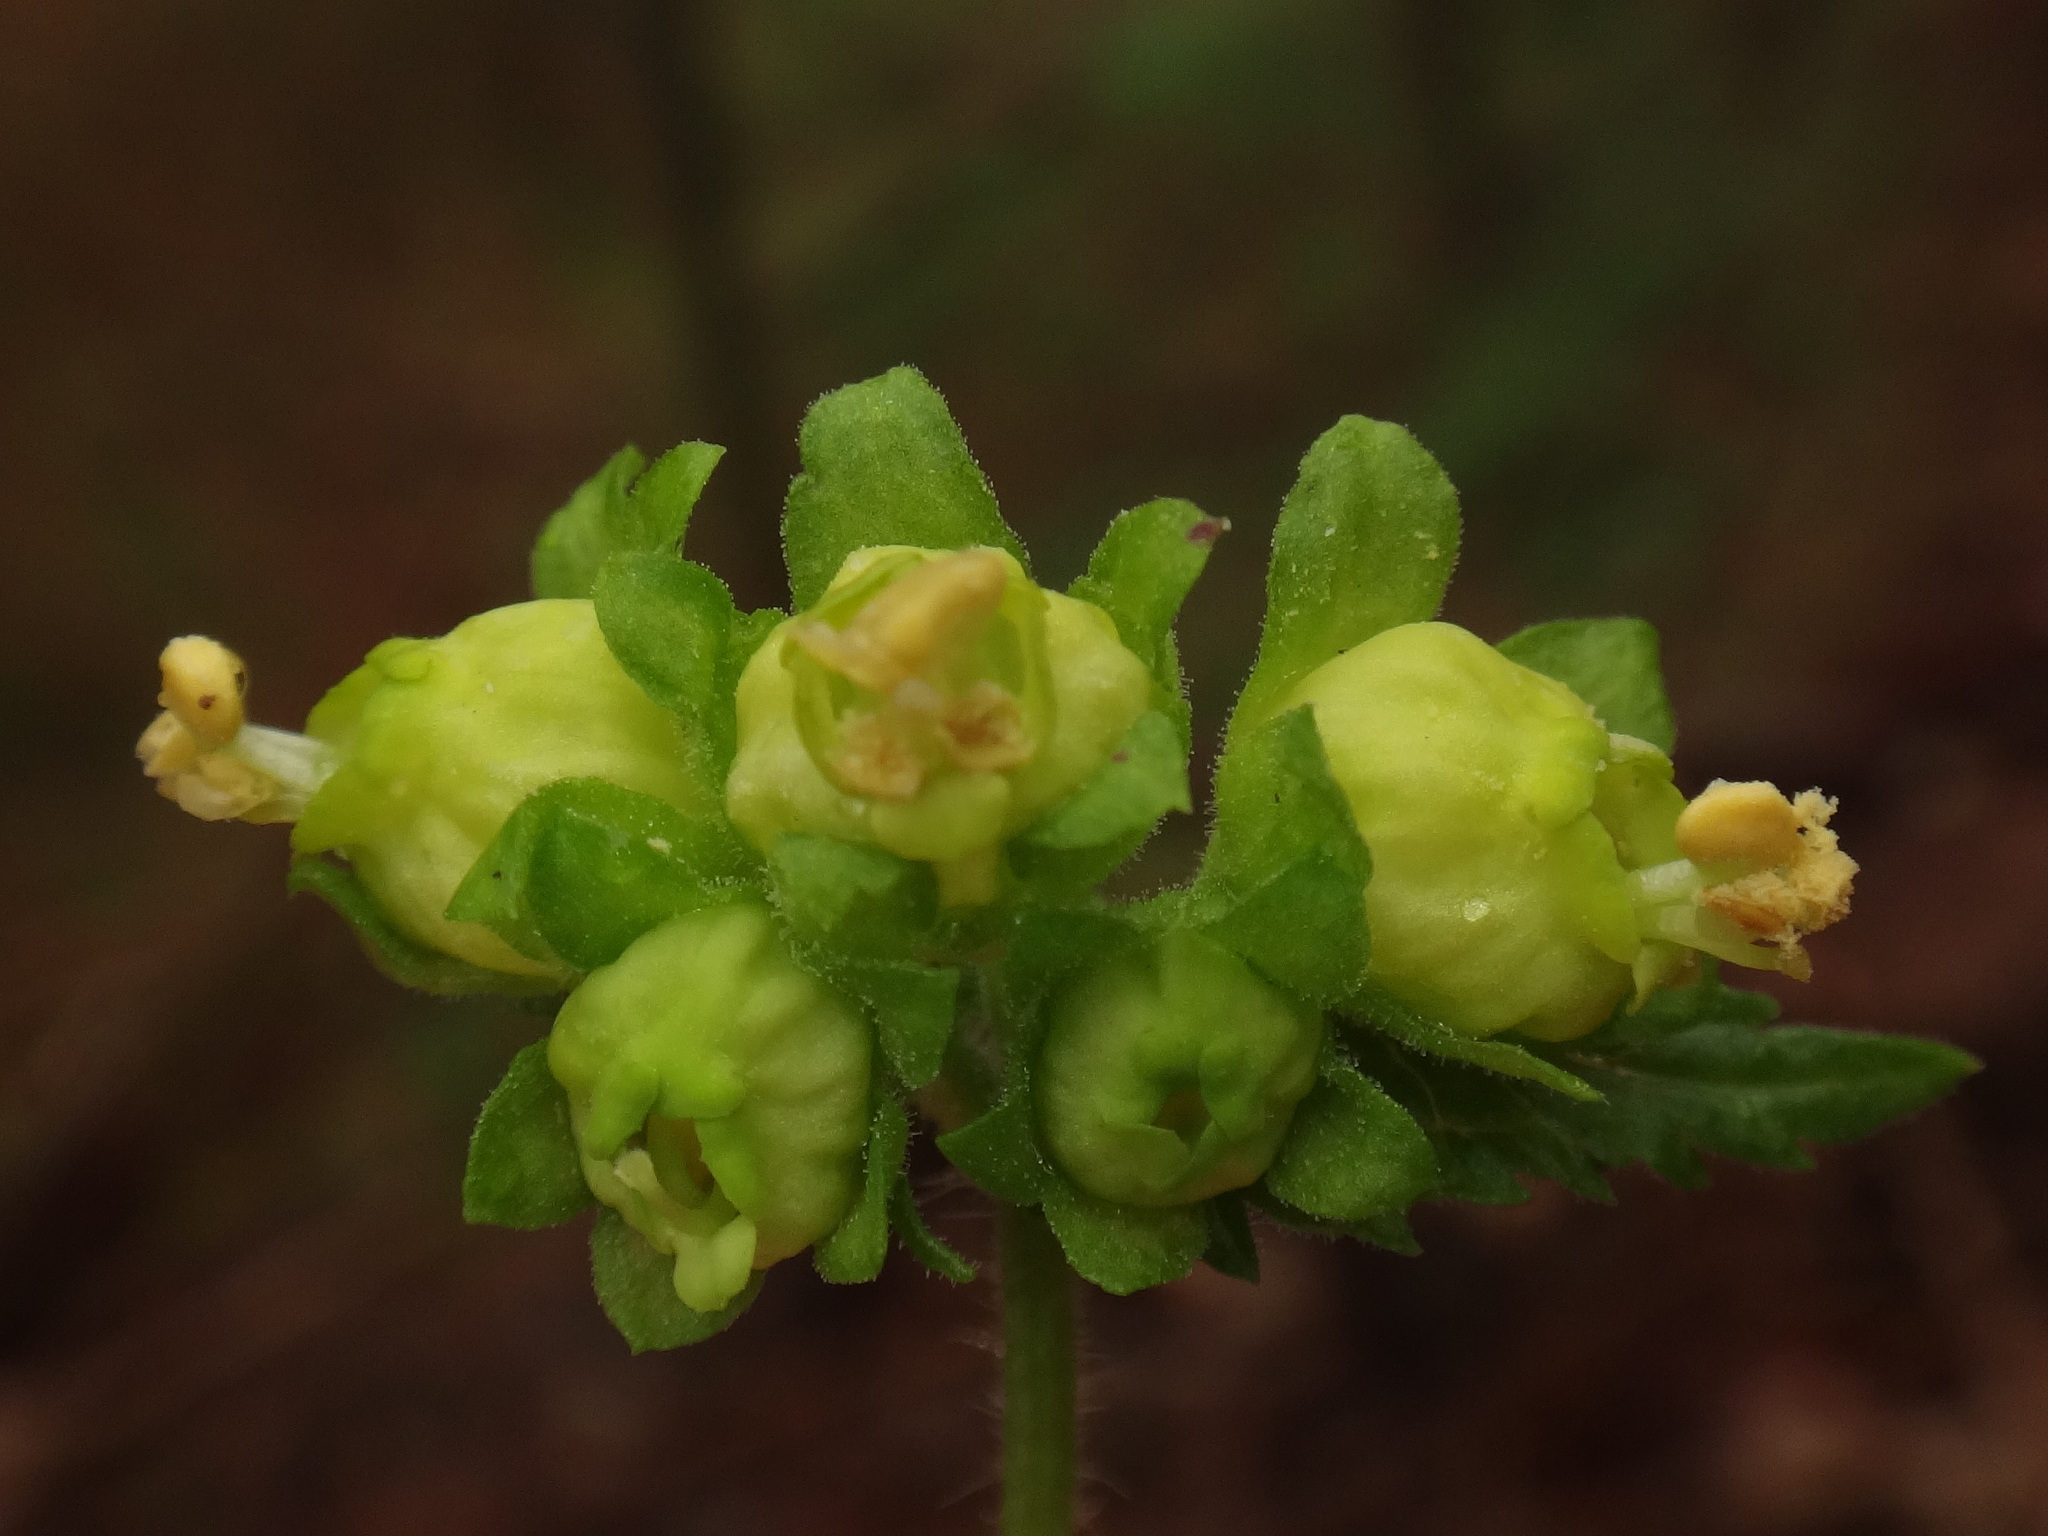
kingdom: Plantae
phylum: Tracheophyta
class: Magnoliopsida
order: Lamiales
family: Scrophulariaceae
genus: Scrophularia
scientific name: Scrophularia vernalis
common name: Yellow figwort
